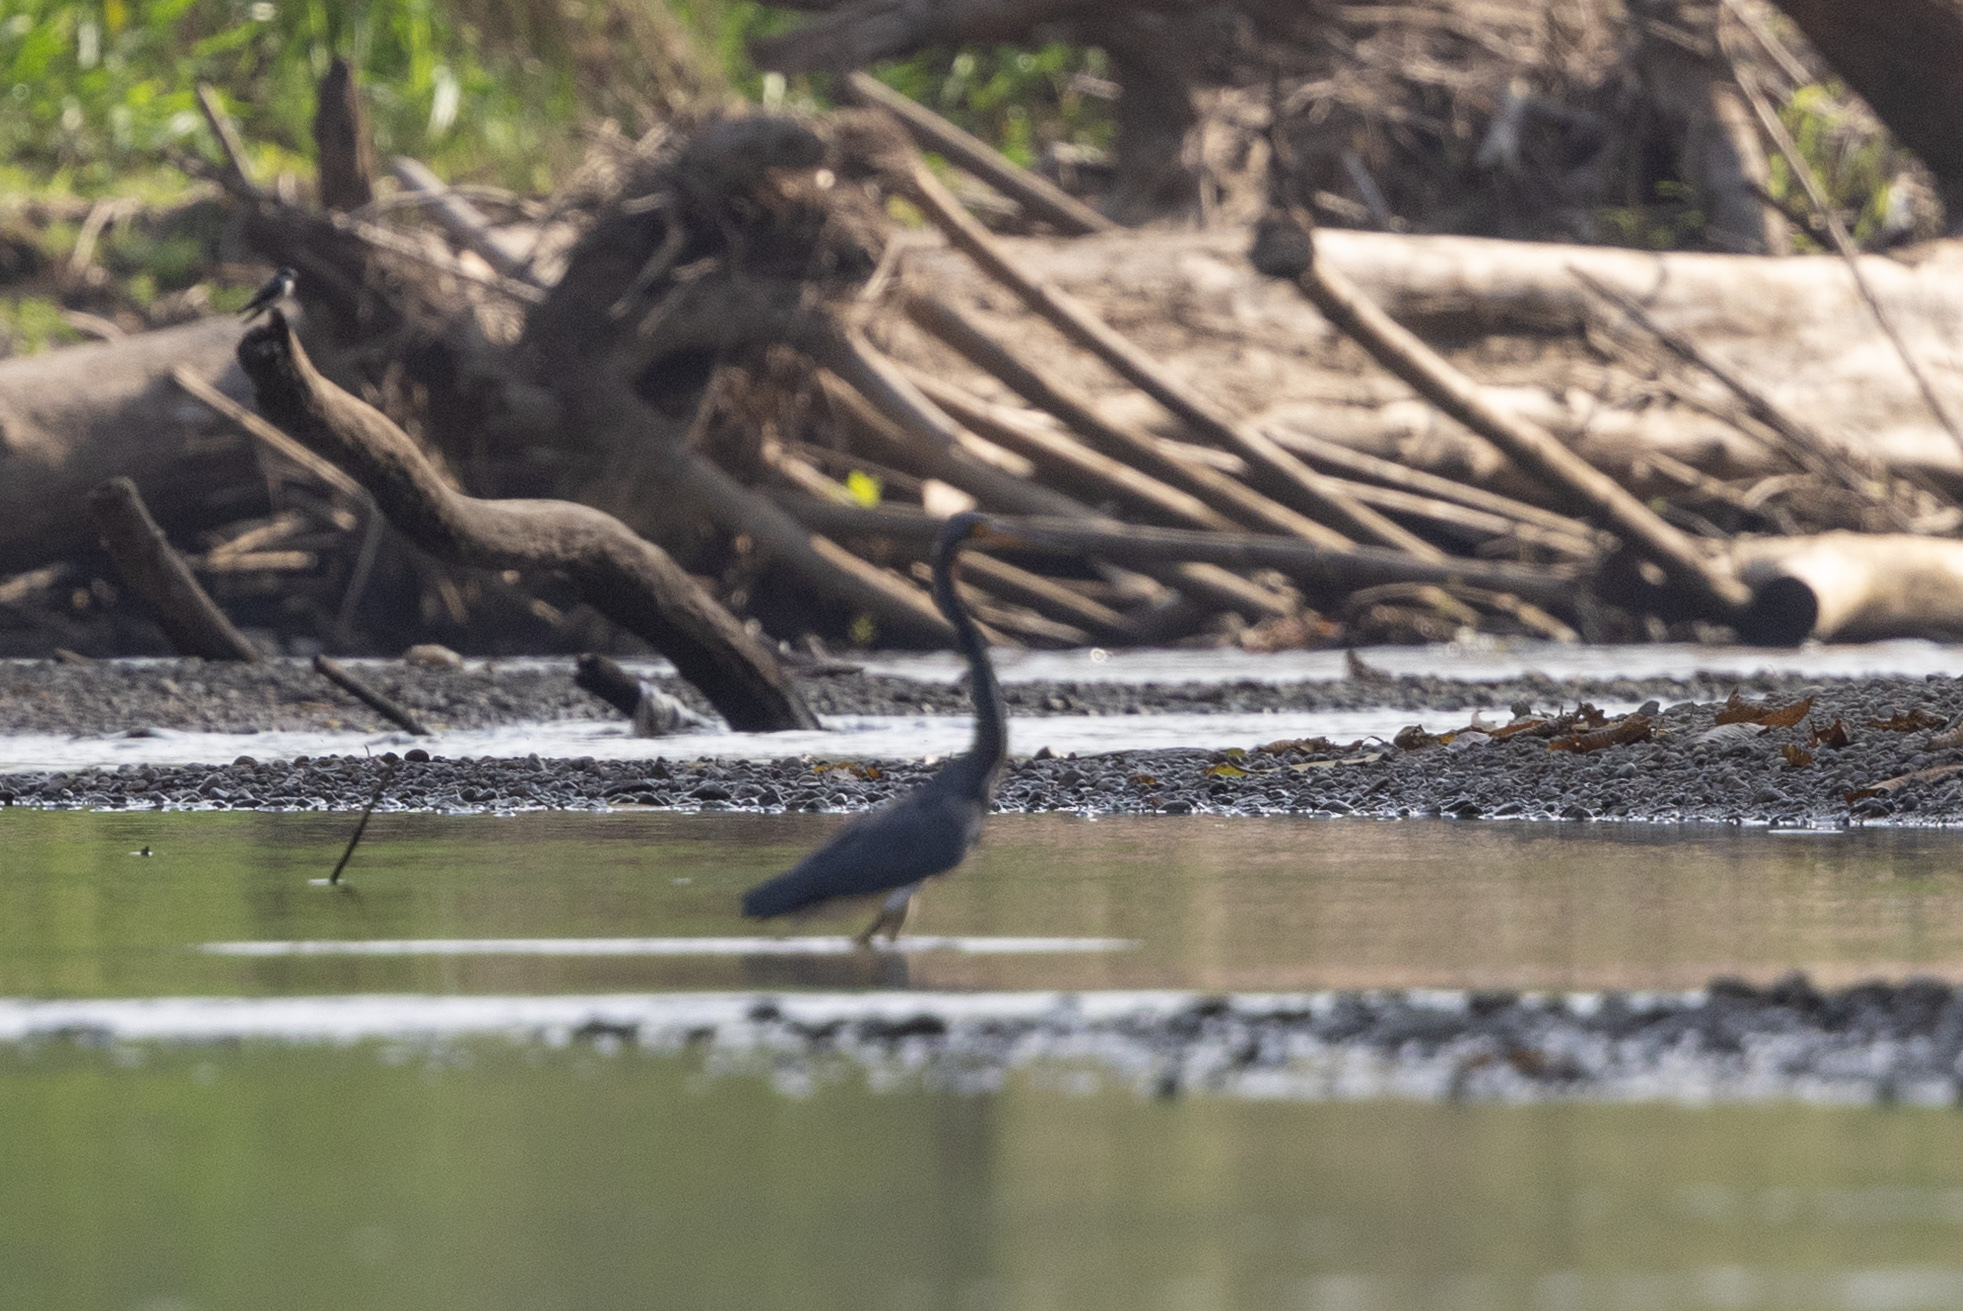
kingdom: Animalia
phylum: Chordata
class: Aves
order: Pelecaniformes
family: Ardeidae
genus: Egretta
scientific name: Egretta tricolor
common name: Tricolored heron
